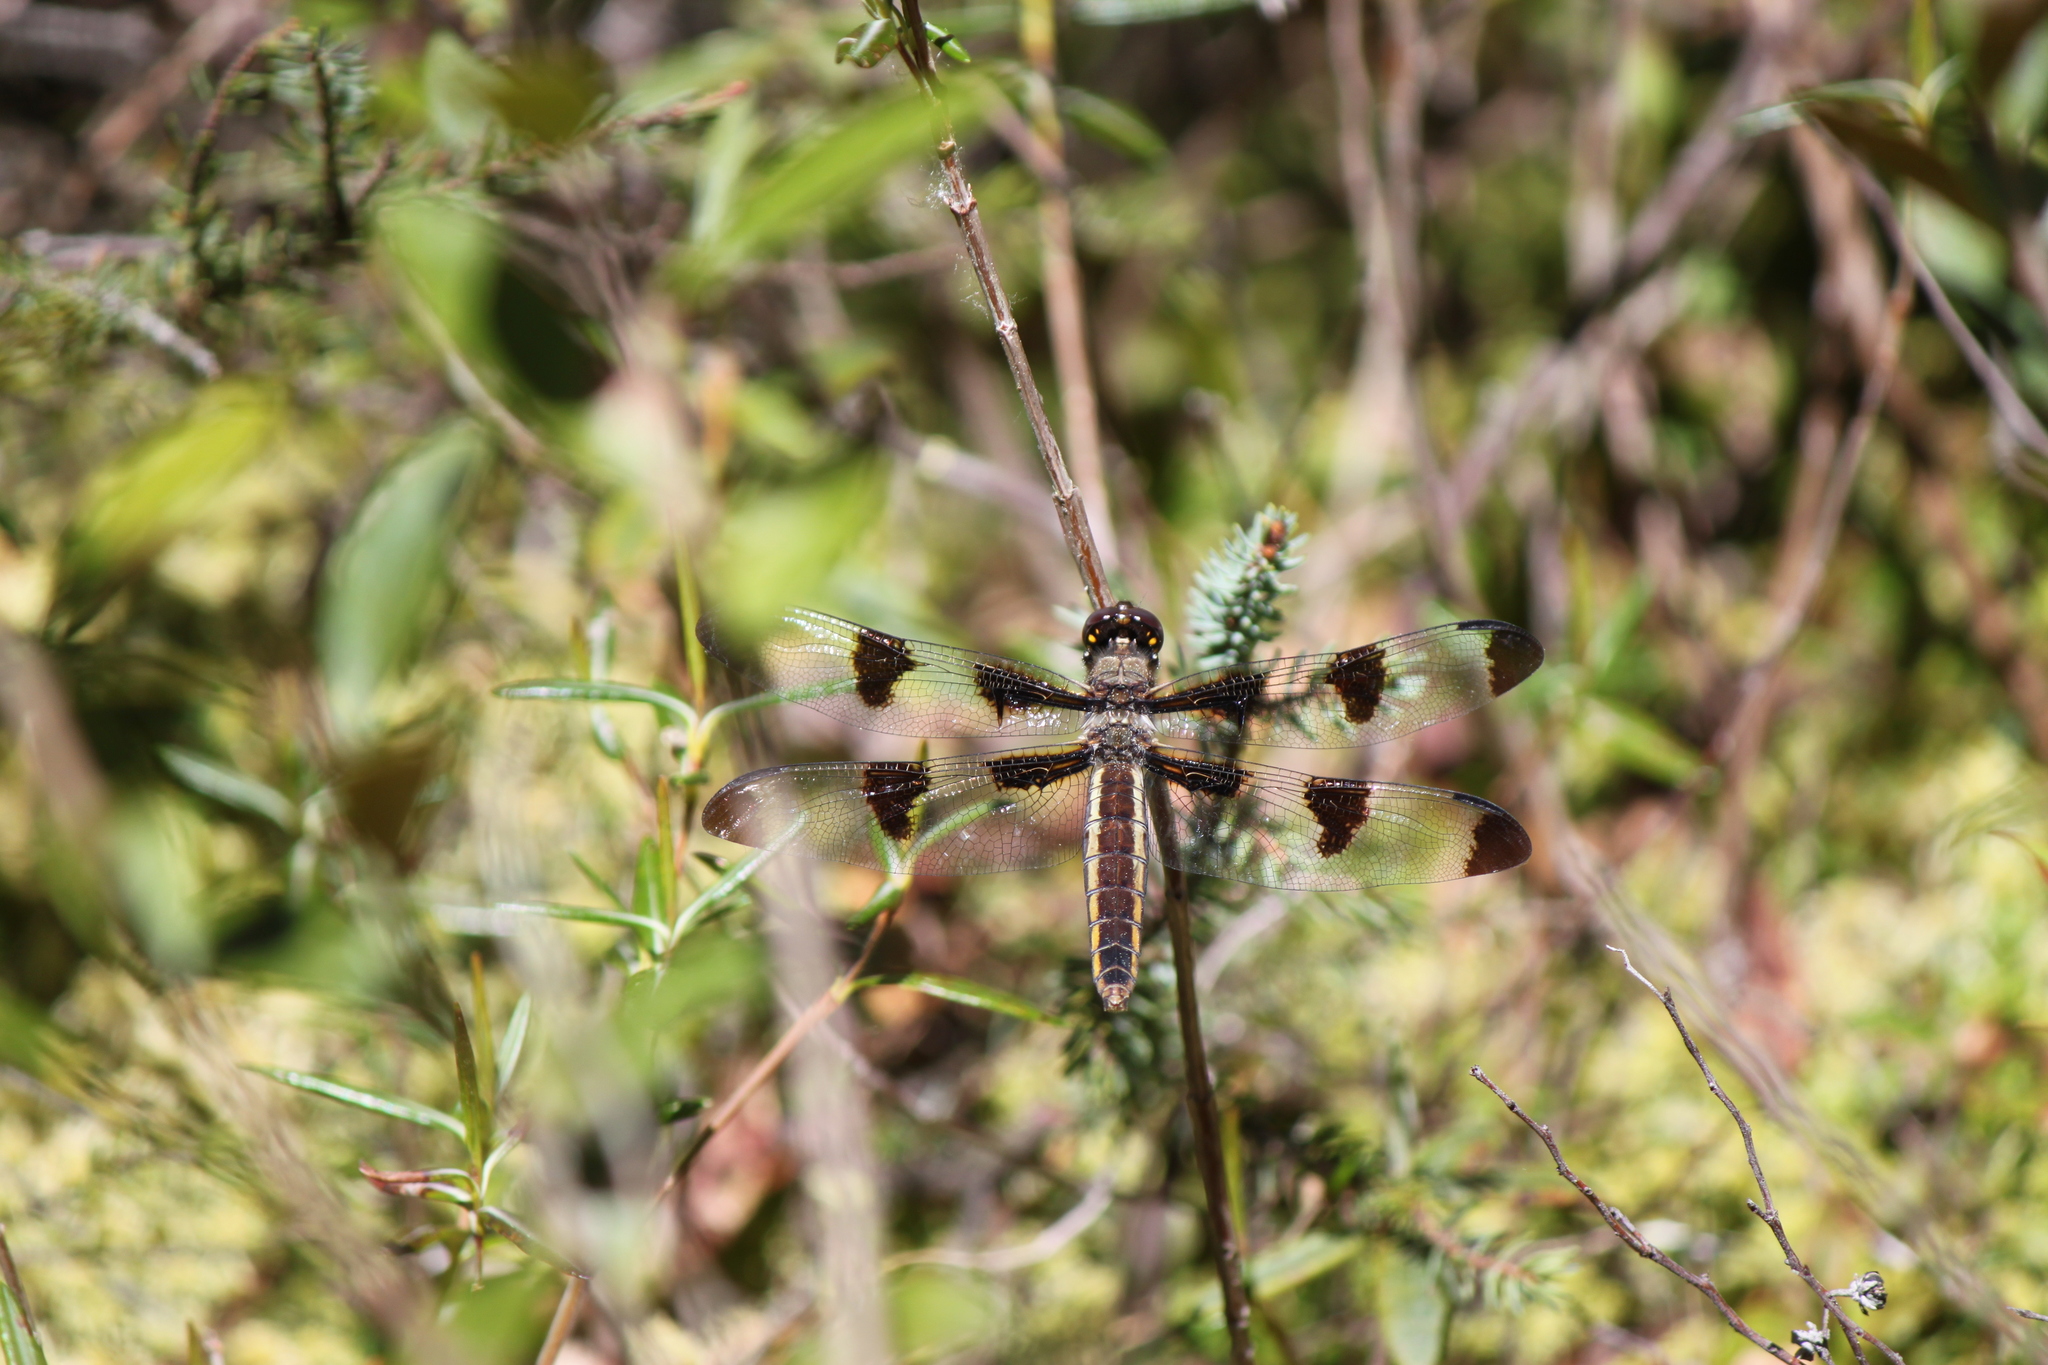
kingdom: Animalia
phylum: Arthropoda
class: Insecta
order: Odonata
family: Libellulidae
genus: Libellula
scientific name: Libellula pulchella
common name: Twelve-spotted skimmer
